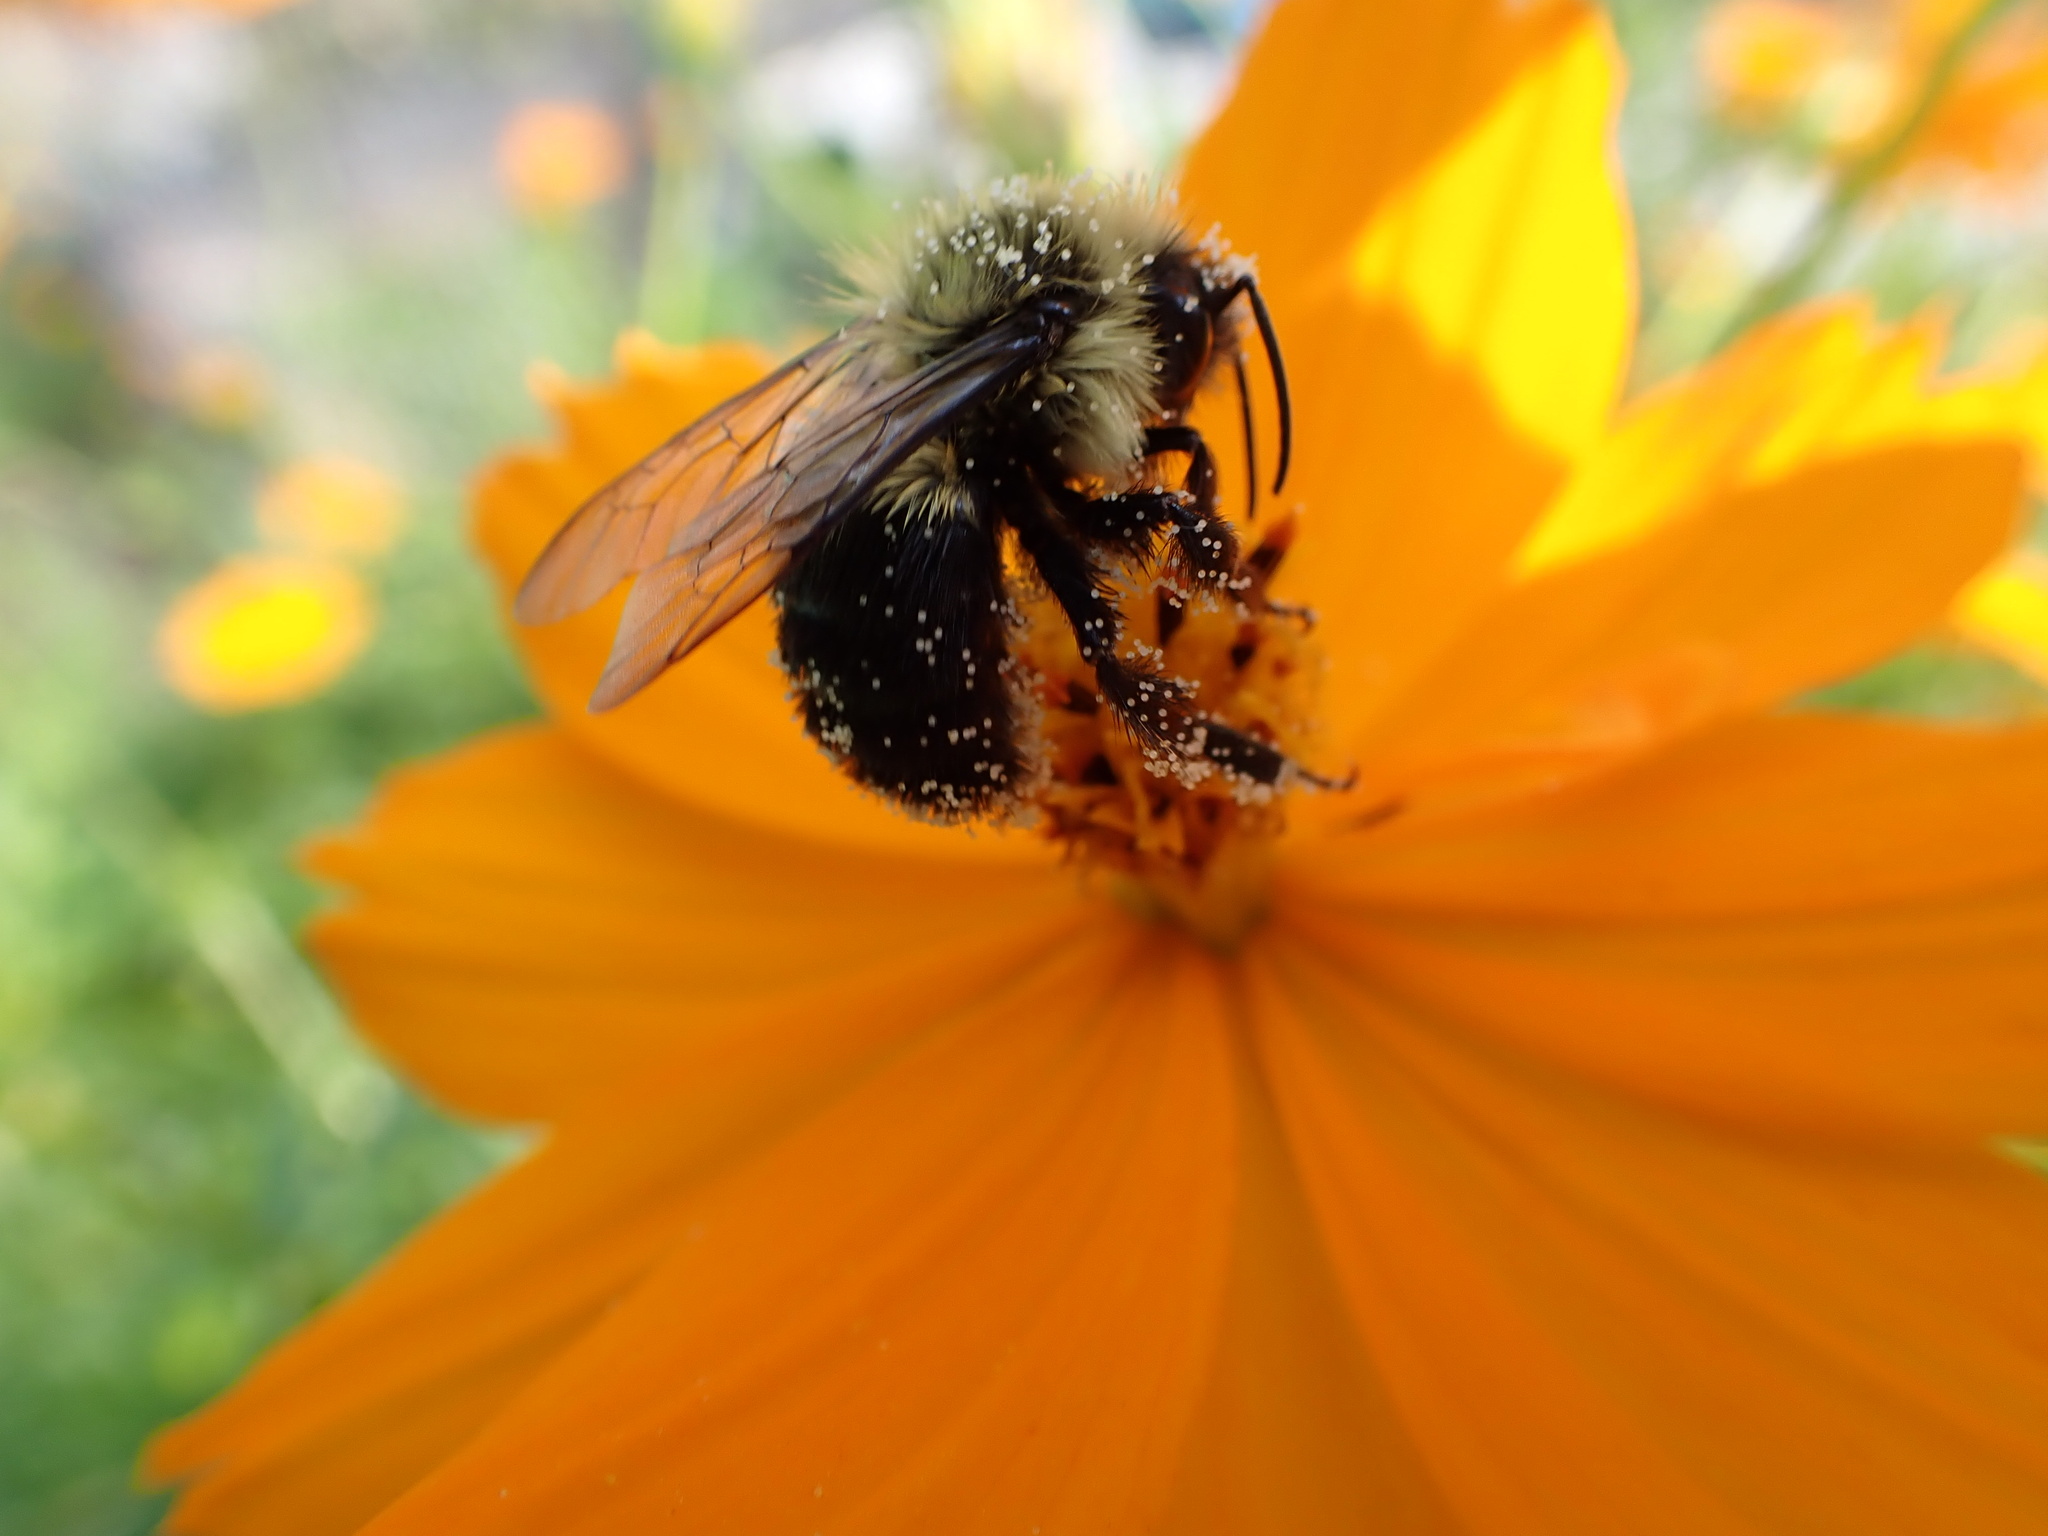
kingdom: Animalia
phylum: Arthropoda
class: Insecta
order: Hymenoptera
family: Apidae
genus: Bombus
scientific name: Bombus impatiens
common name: Common eastern bumble bee
